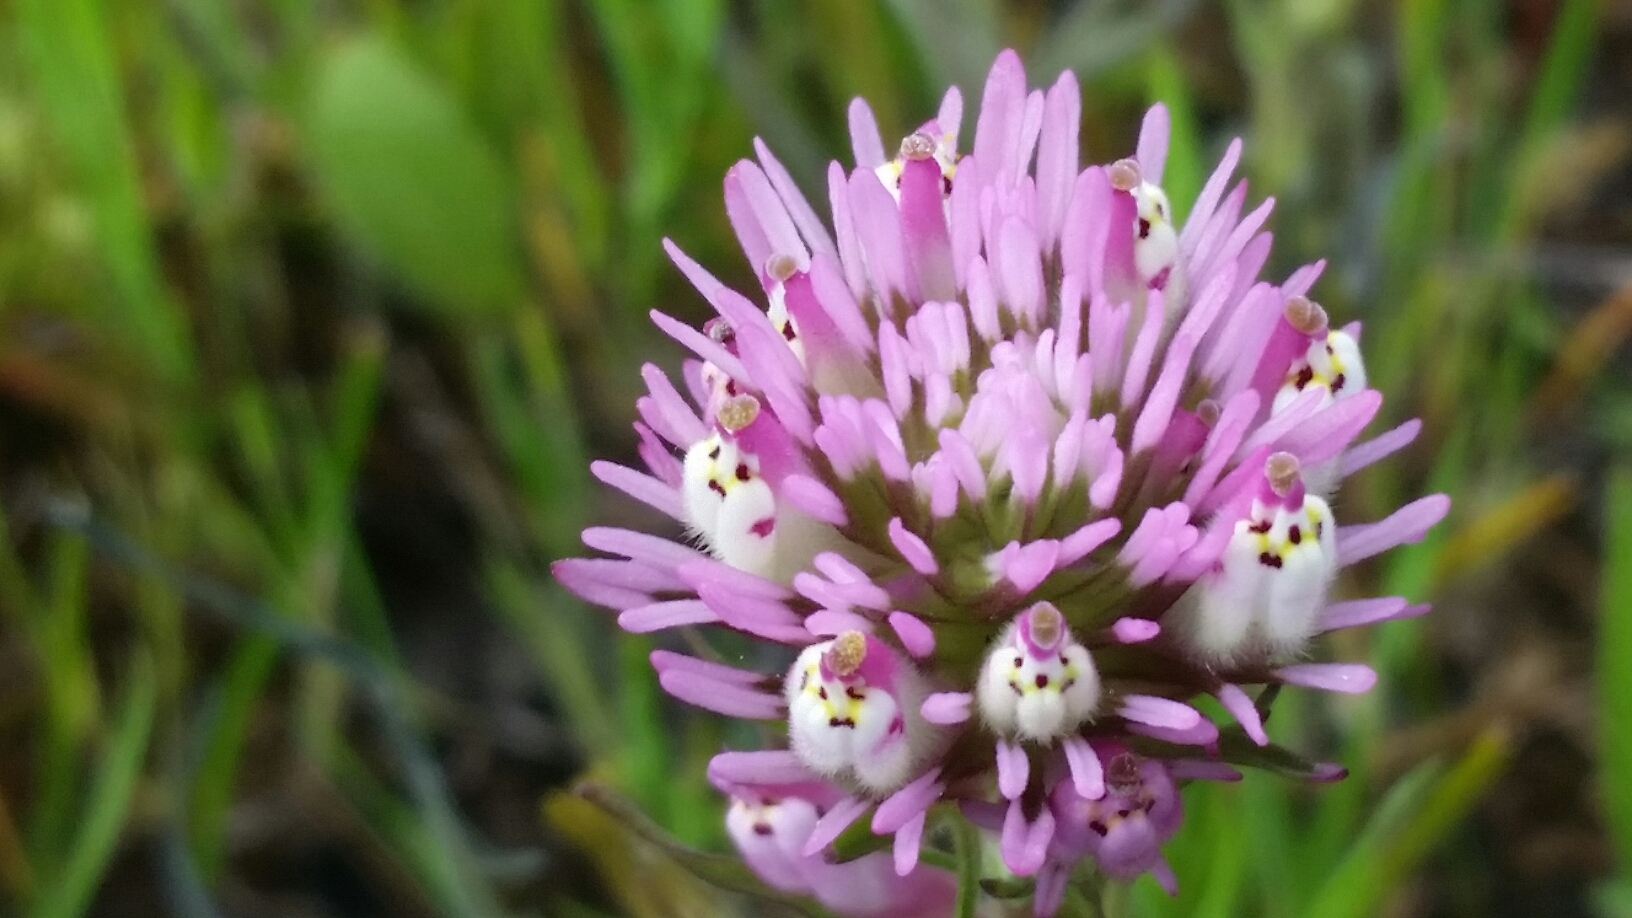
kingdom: Plantae
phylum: Tracheophyta
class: Magnoliopsida
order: Lamiales
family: Orobanchaceae
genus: Castilleja
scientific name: Castilleja densiflora
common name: Dense-flower indian paintbrush
